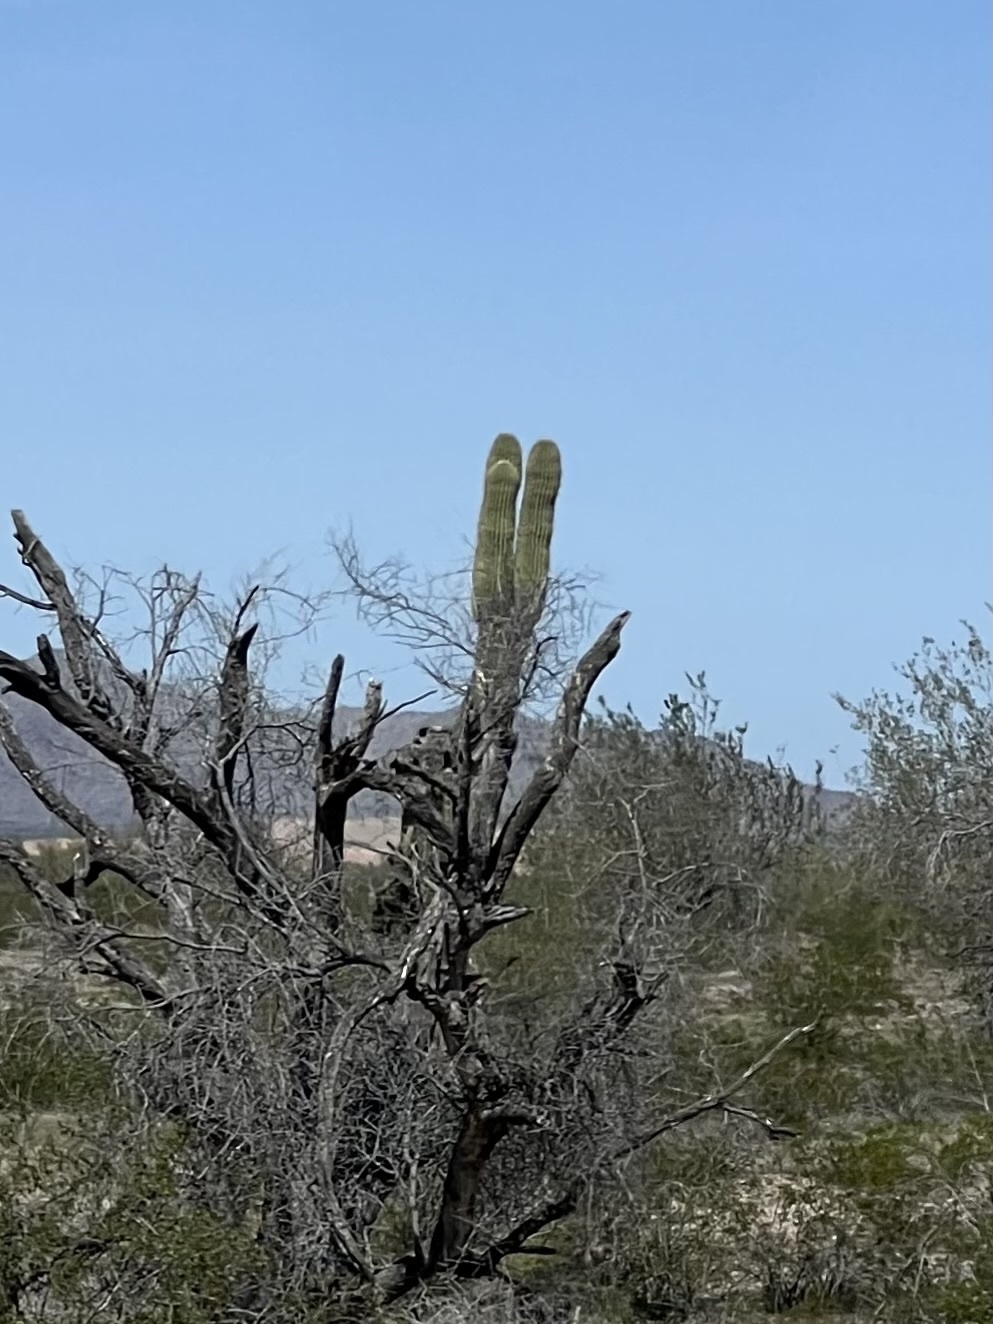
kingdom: Plantae
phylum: Tracheophyta
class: Magnoliopsida
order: Caryophyllales
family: Cactaceae
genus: Carnegiea
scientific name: Carnegiea gigantea
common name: Saguaro
